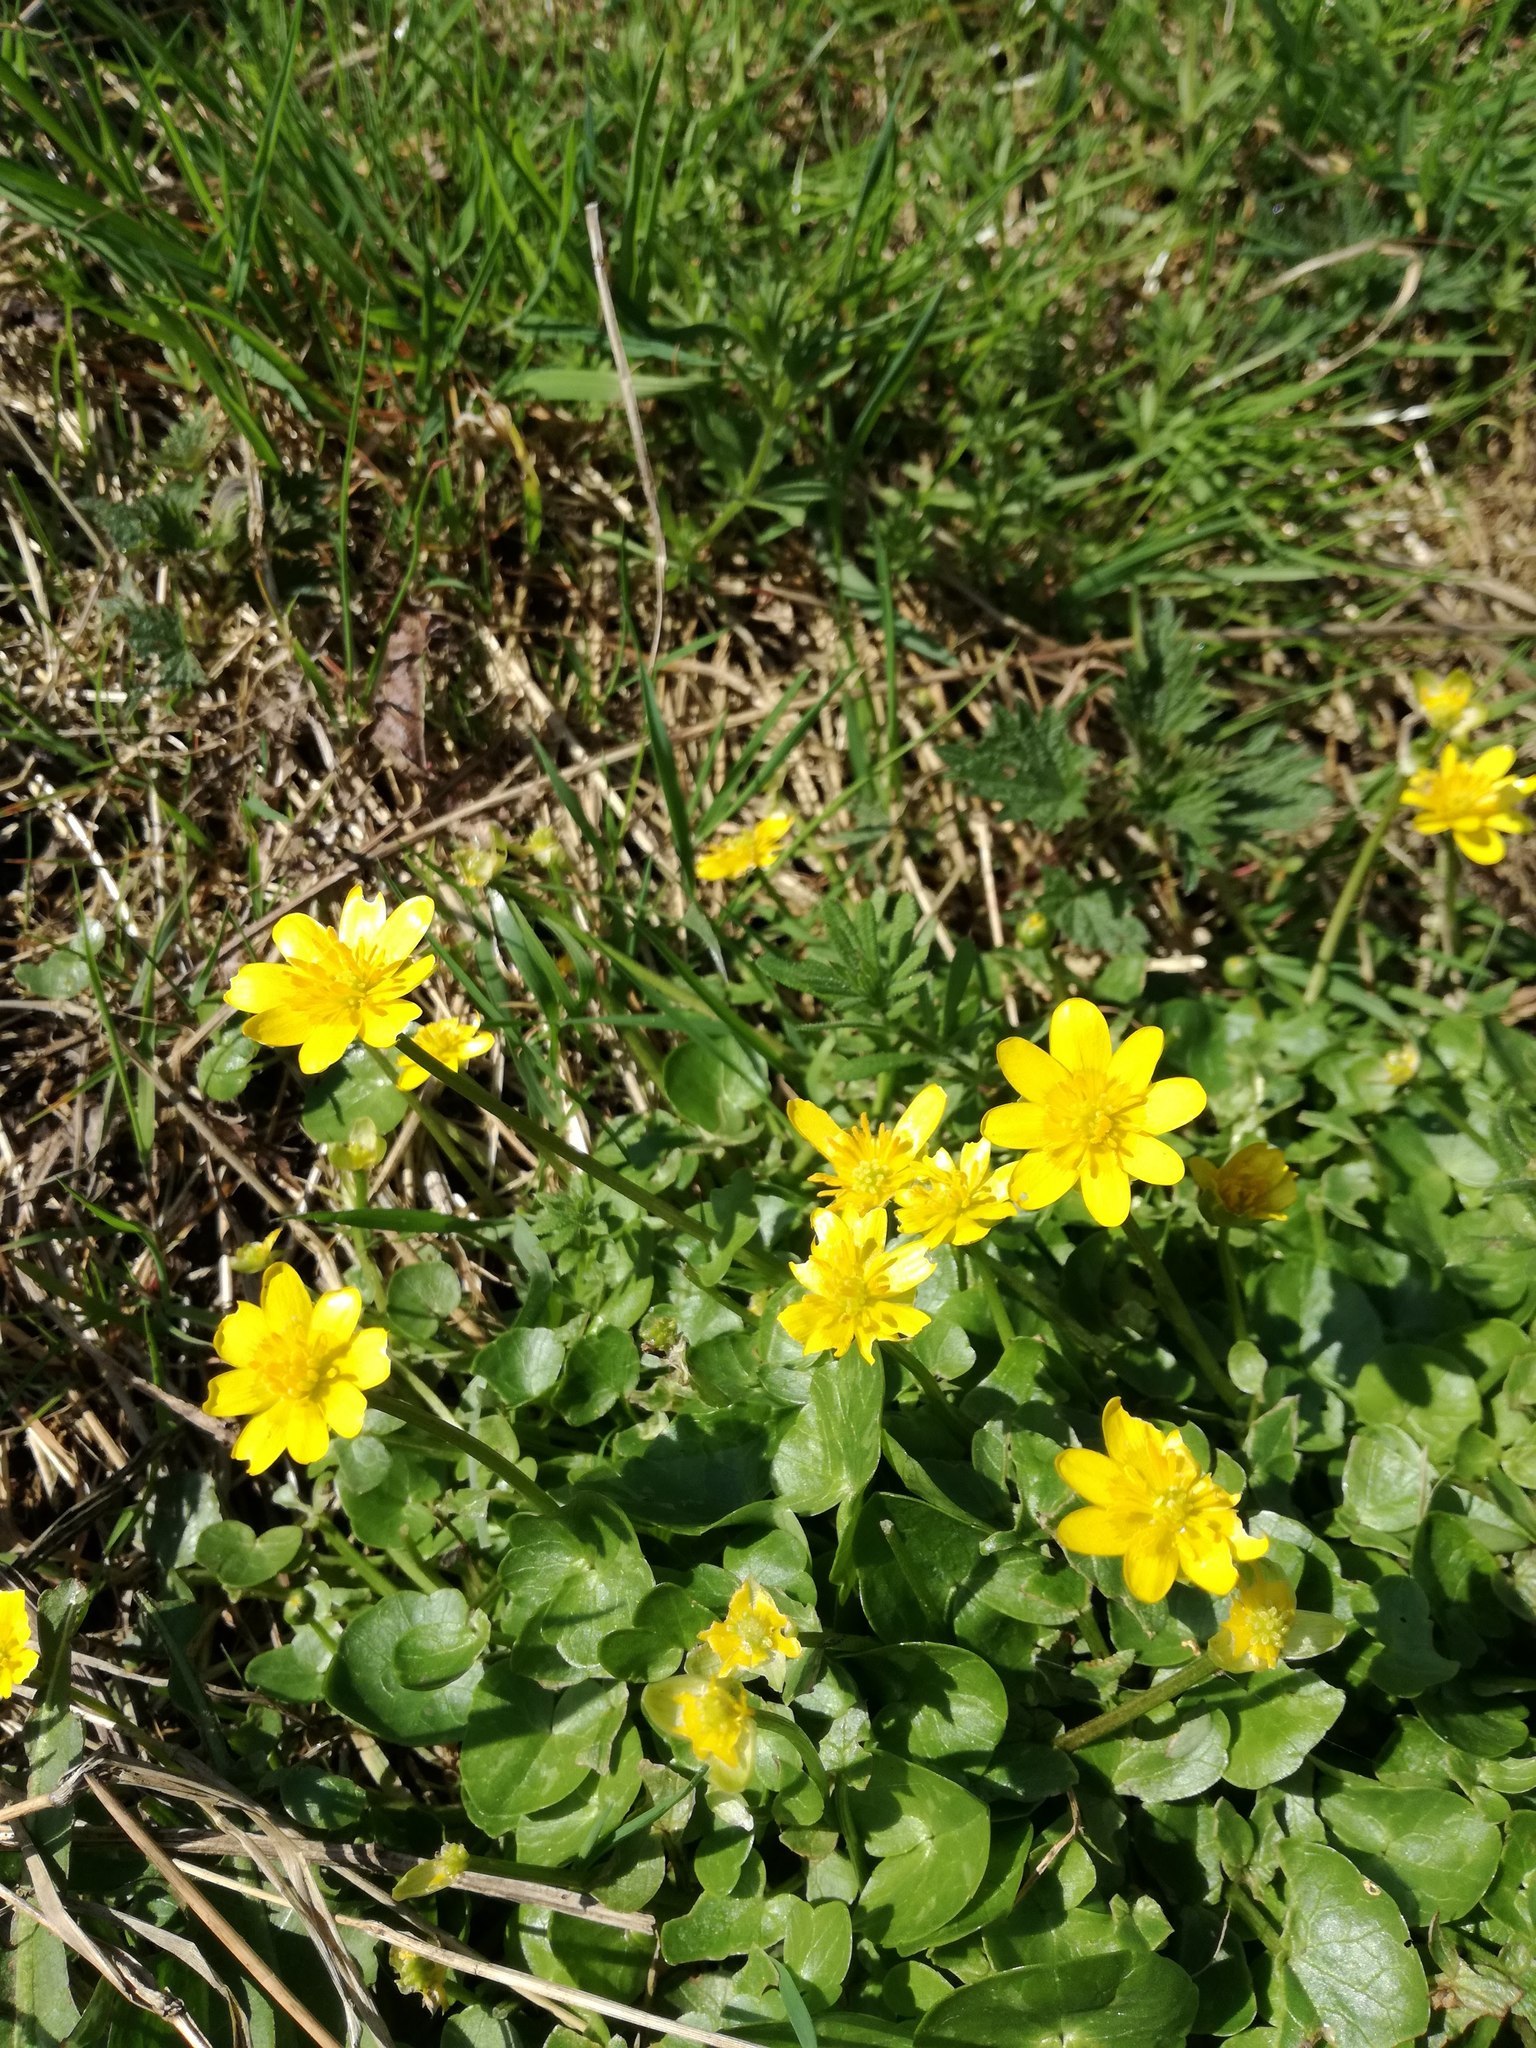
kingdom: Plantae
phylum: Tracheophyta
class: Magnoliopsida
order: Ranunculales
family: Ranunculaceae
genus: Ficaria
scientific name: Ficaria verna
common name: Lesser celandine
